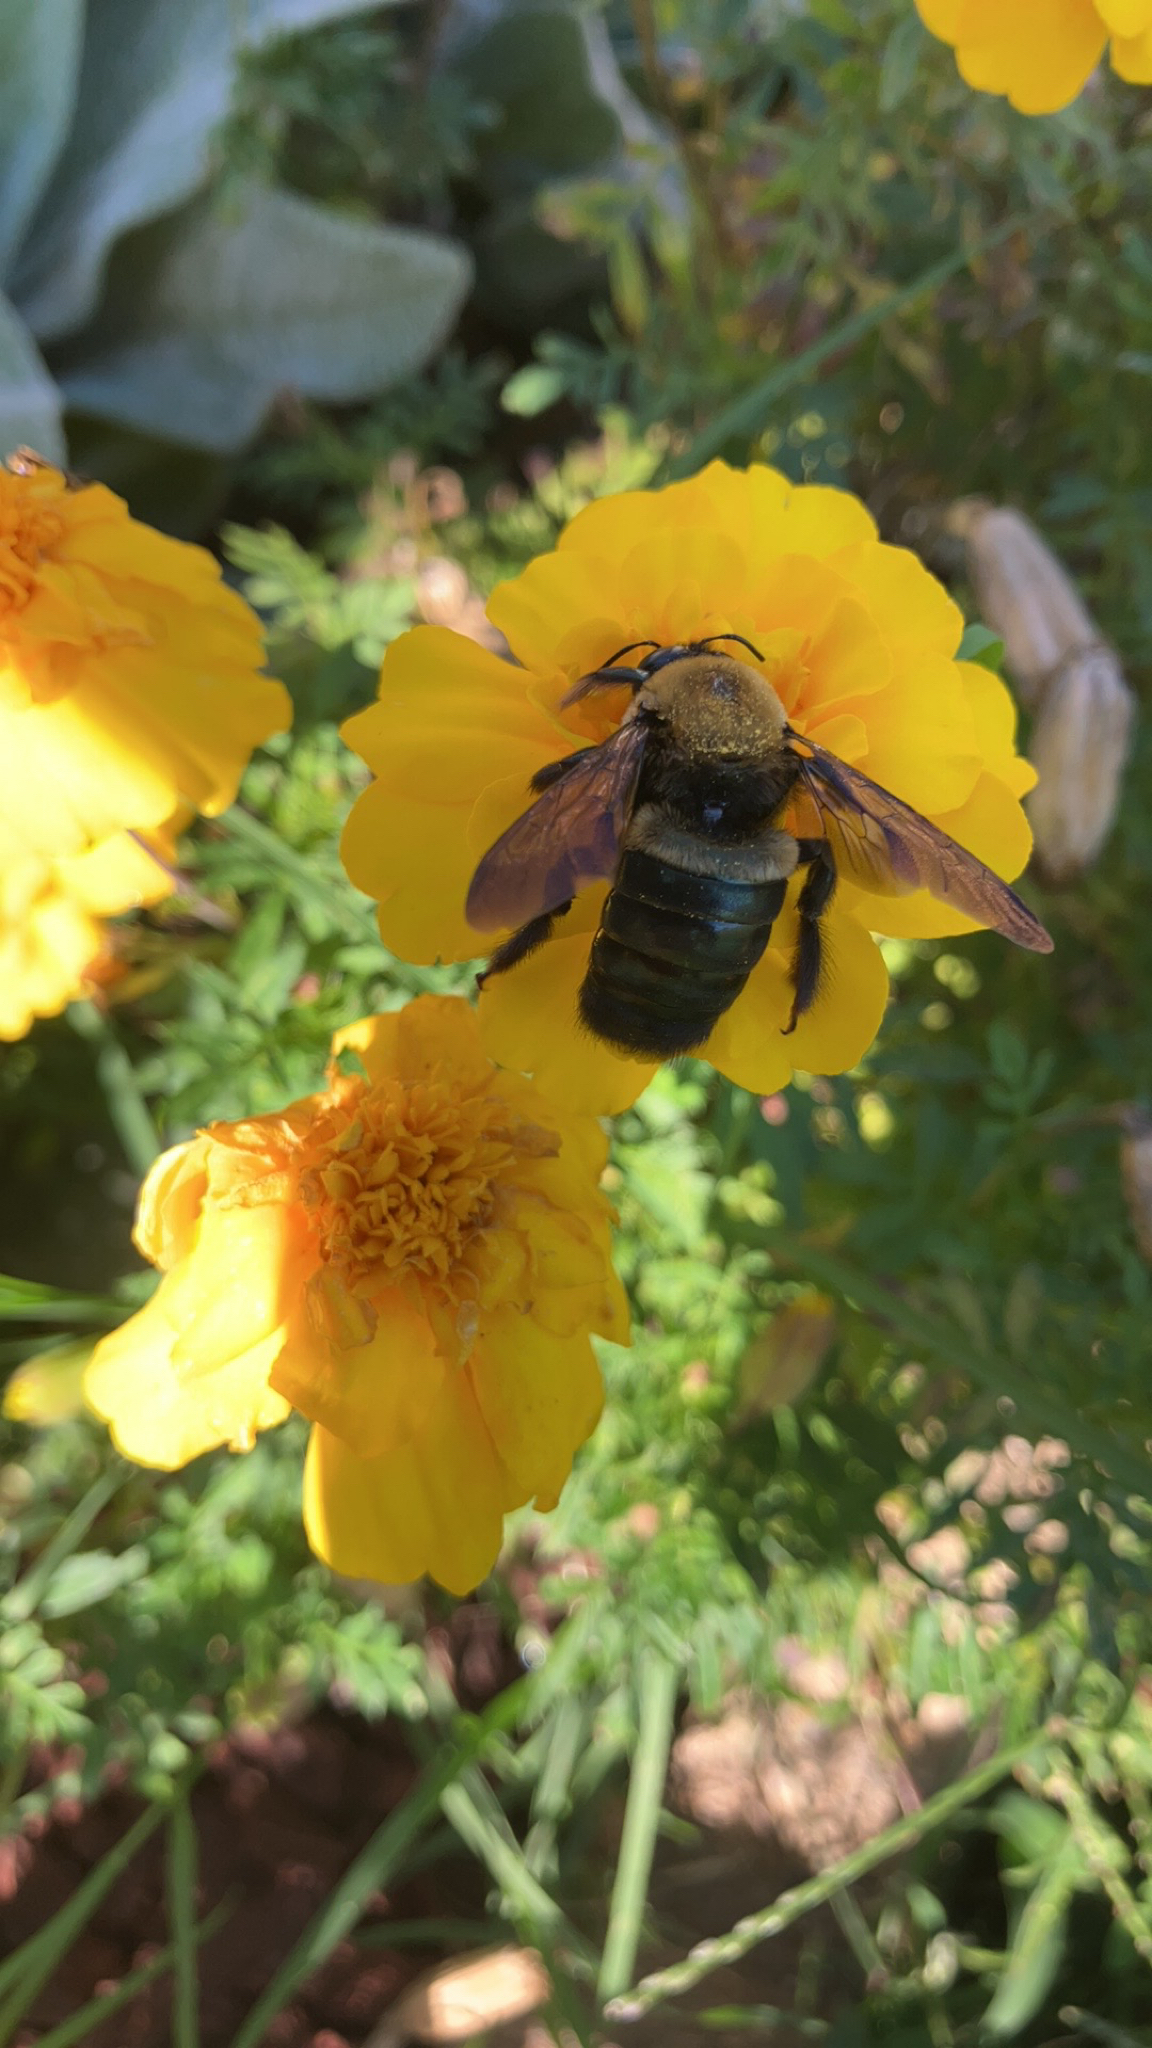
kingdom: Animalia
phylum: Arthropoda
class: Insecta
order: Hymenoptera
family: Apidae
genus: Xylocopa
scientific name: Xylocopa virginica
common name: Carpenter bee
